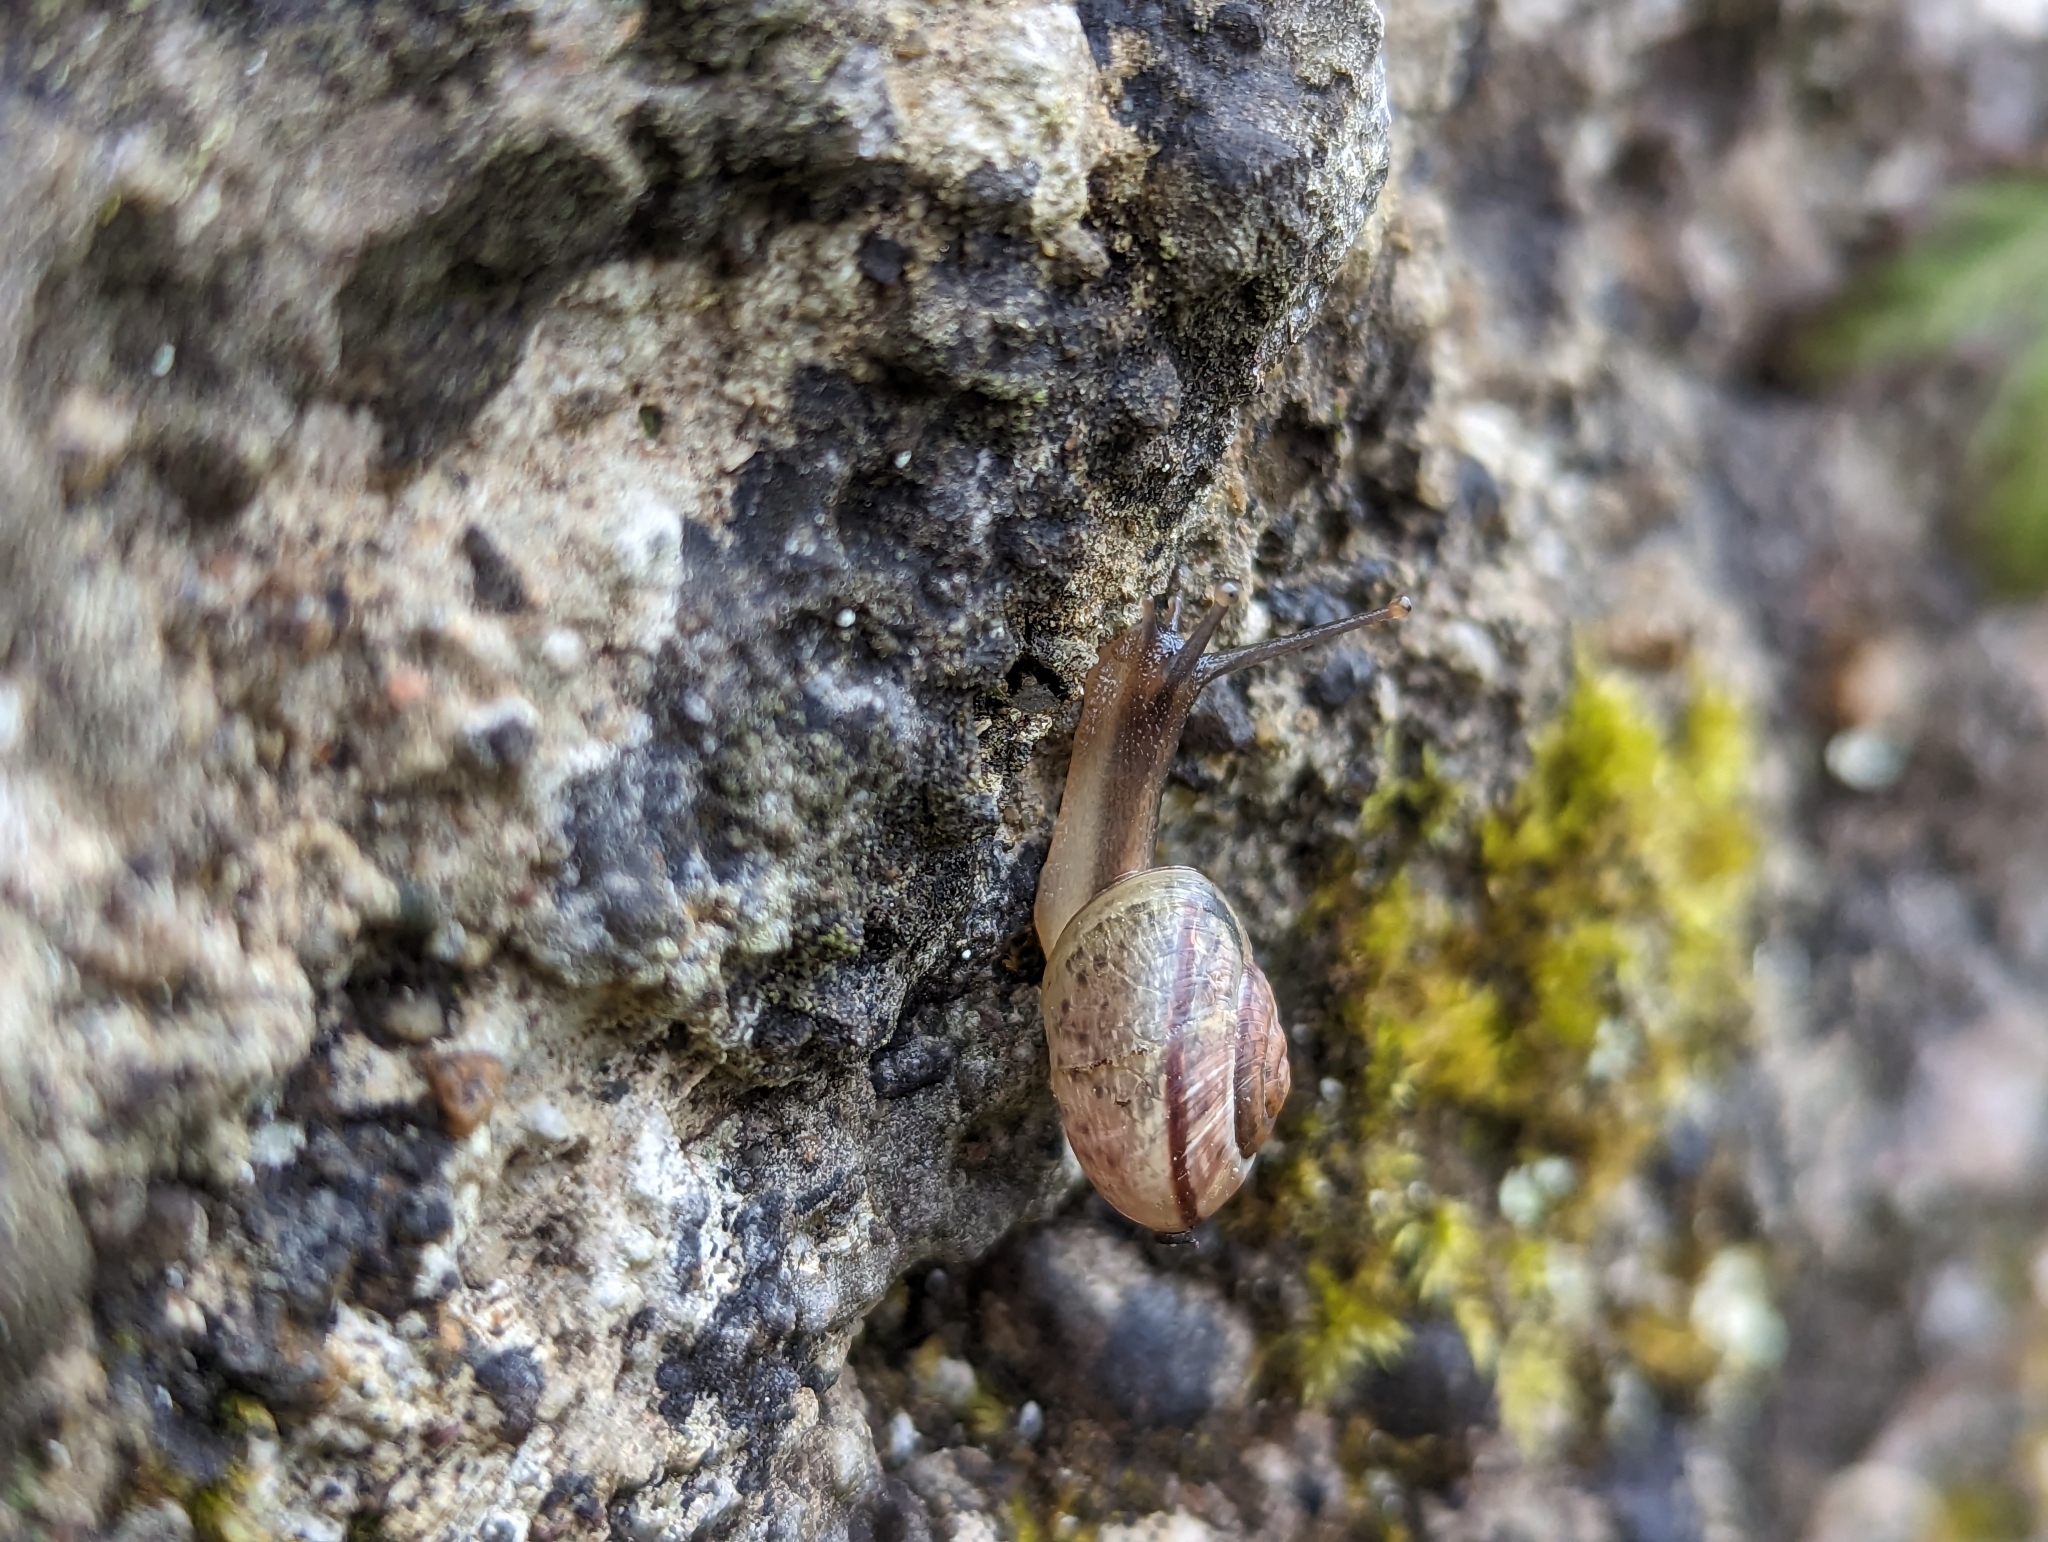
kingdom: Animalia
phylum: Mollusca
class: Gastropoda
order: Stylommatophora
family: Helicidae
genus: Arianta
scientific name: Arianta arbustorum
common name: Copse snail
